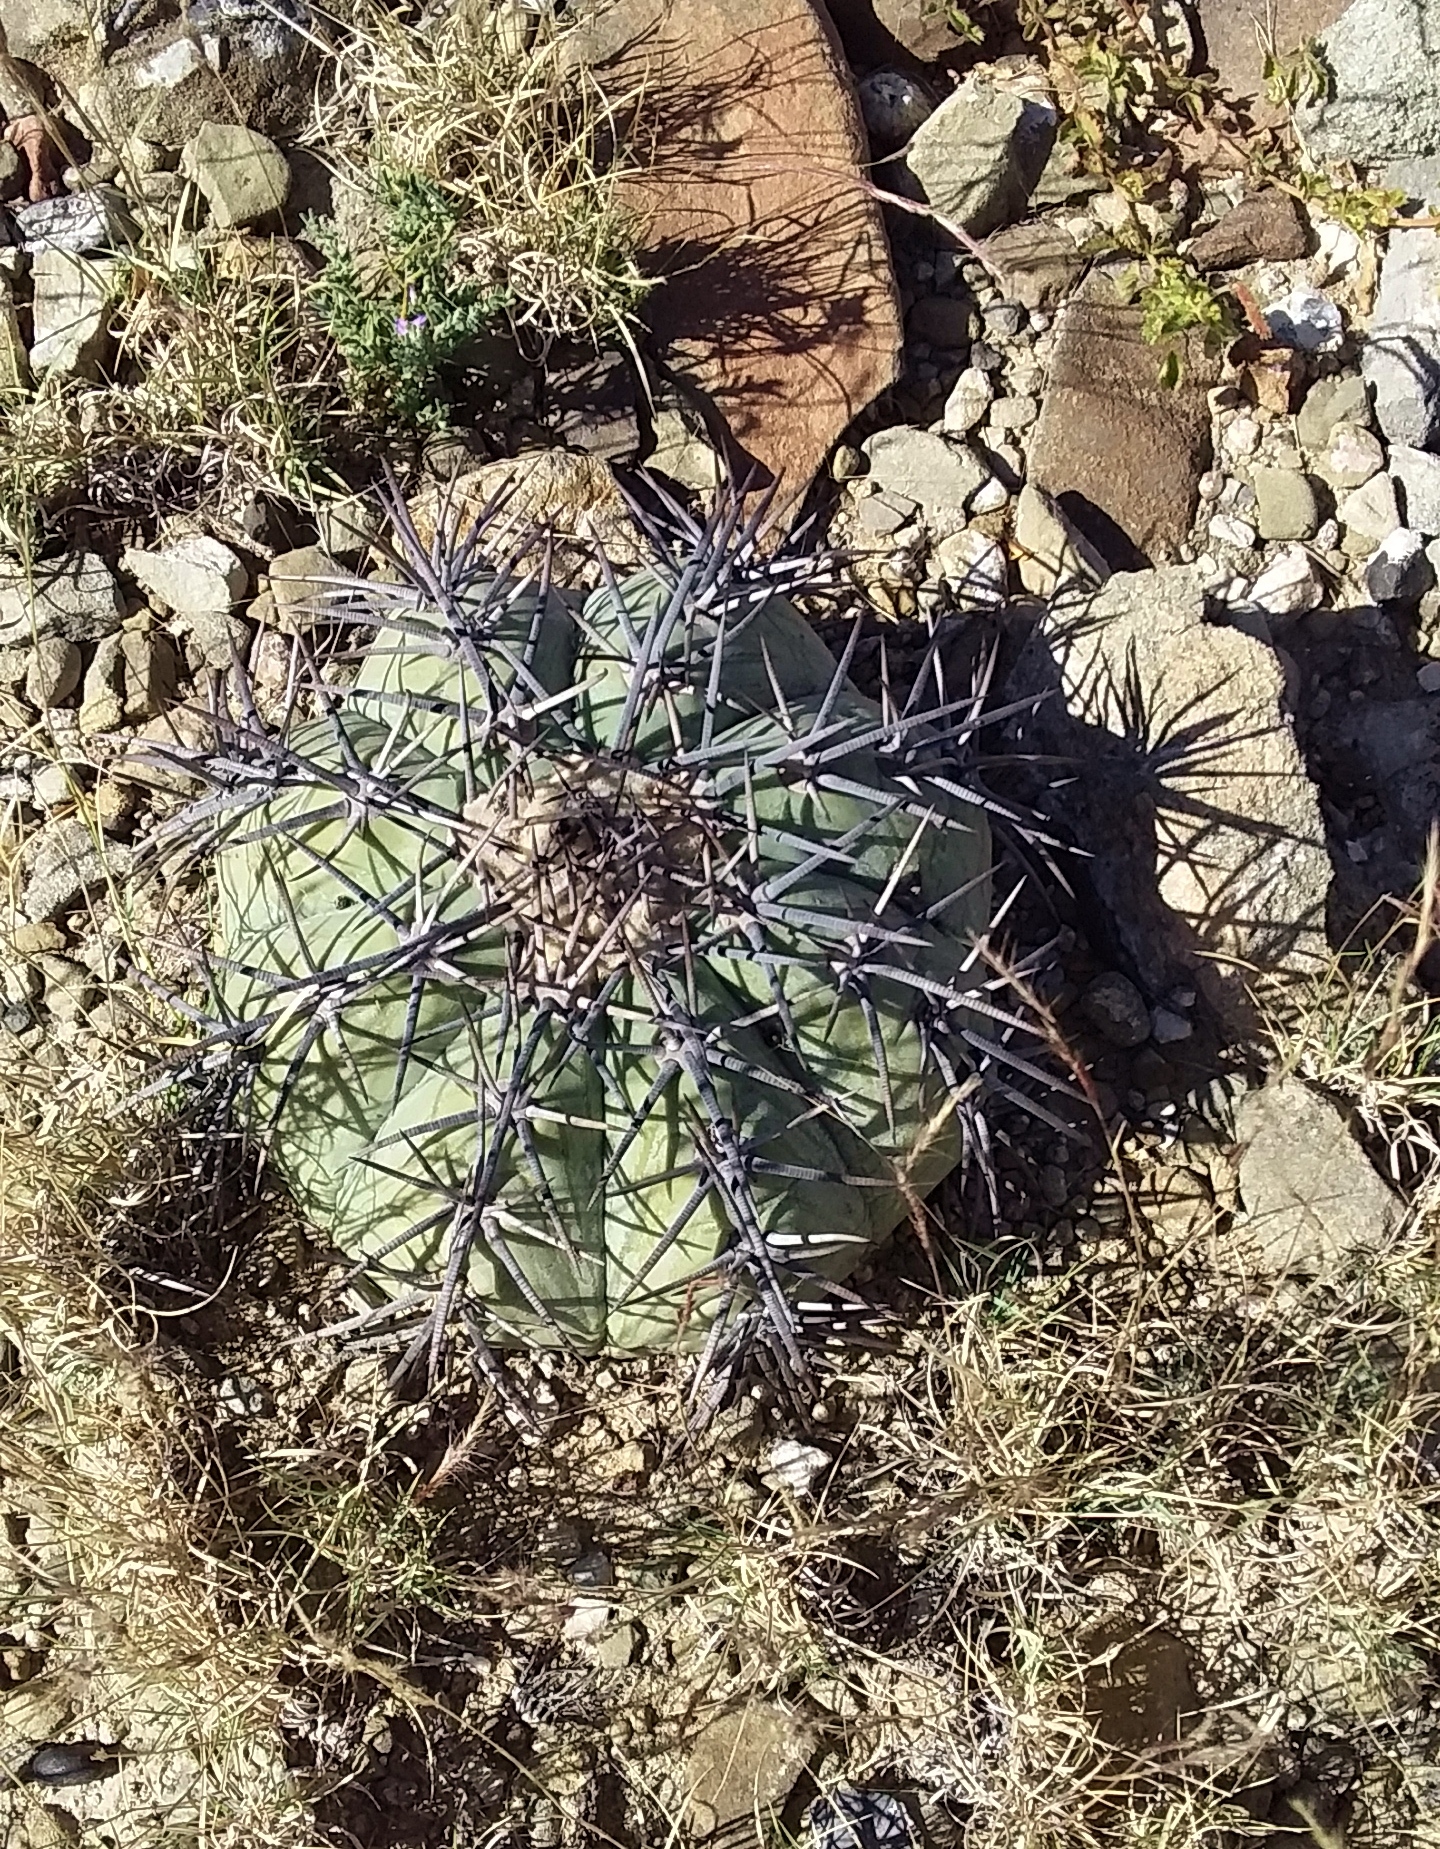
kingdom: Plantae
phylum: Tracheophyta
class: Magnoliopsida
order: Caryophyllales
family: Cactaceae
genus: Echinocactus
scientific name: Echinocactus horizonthalonius
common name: Devilshead
